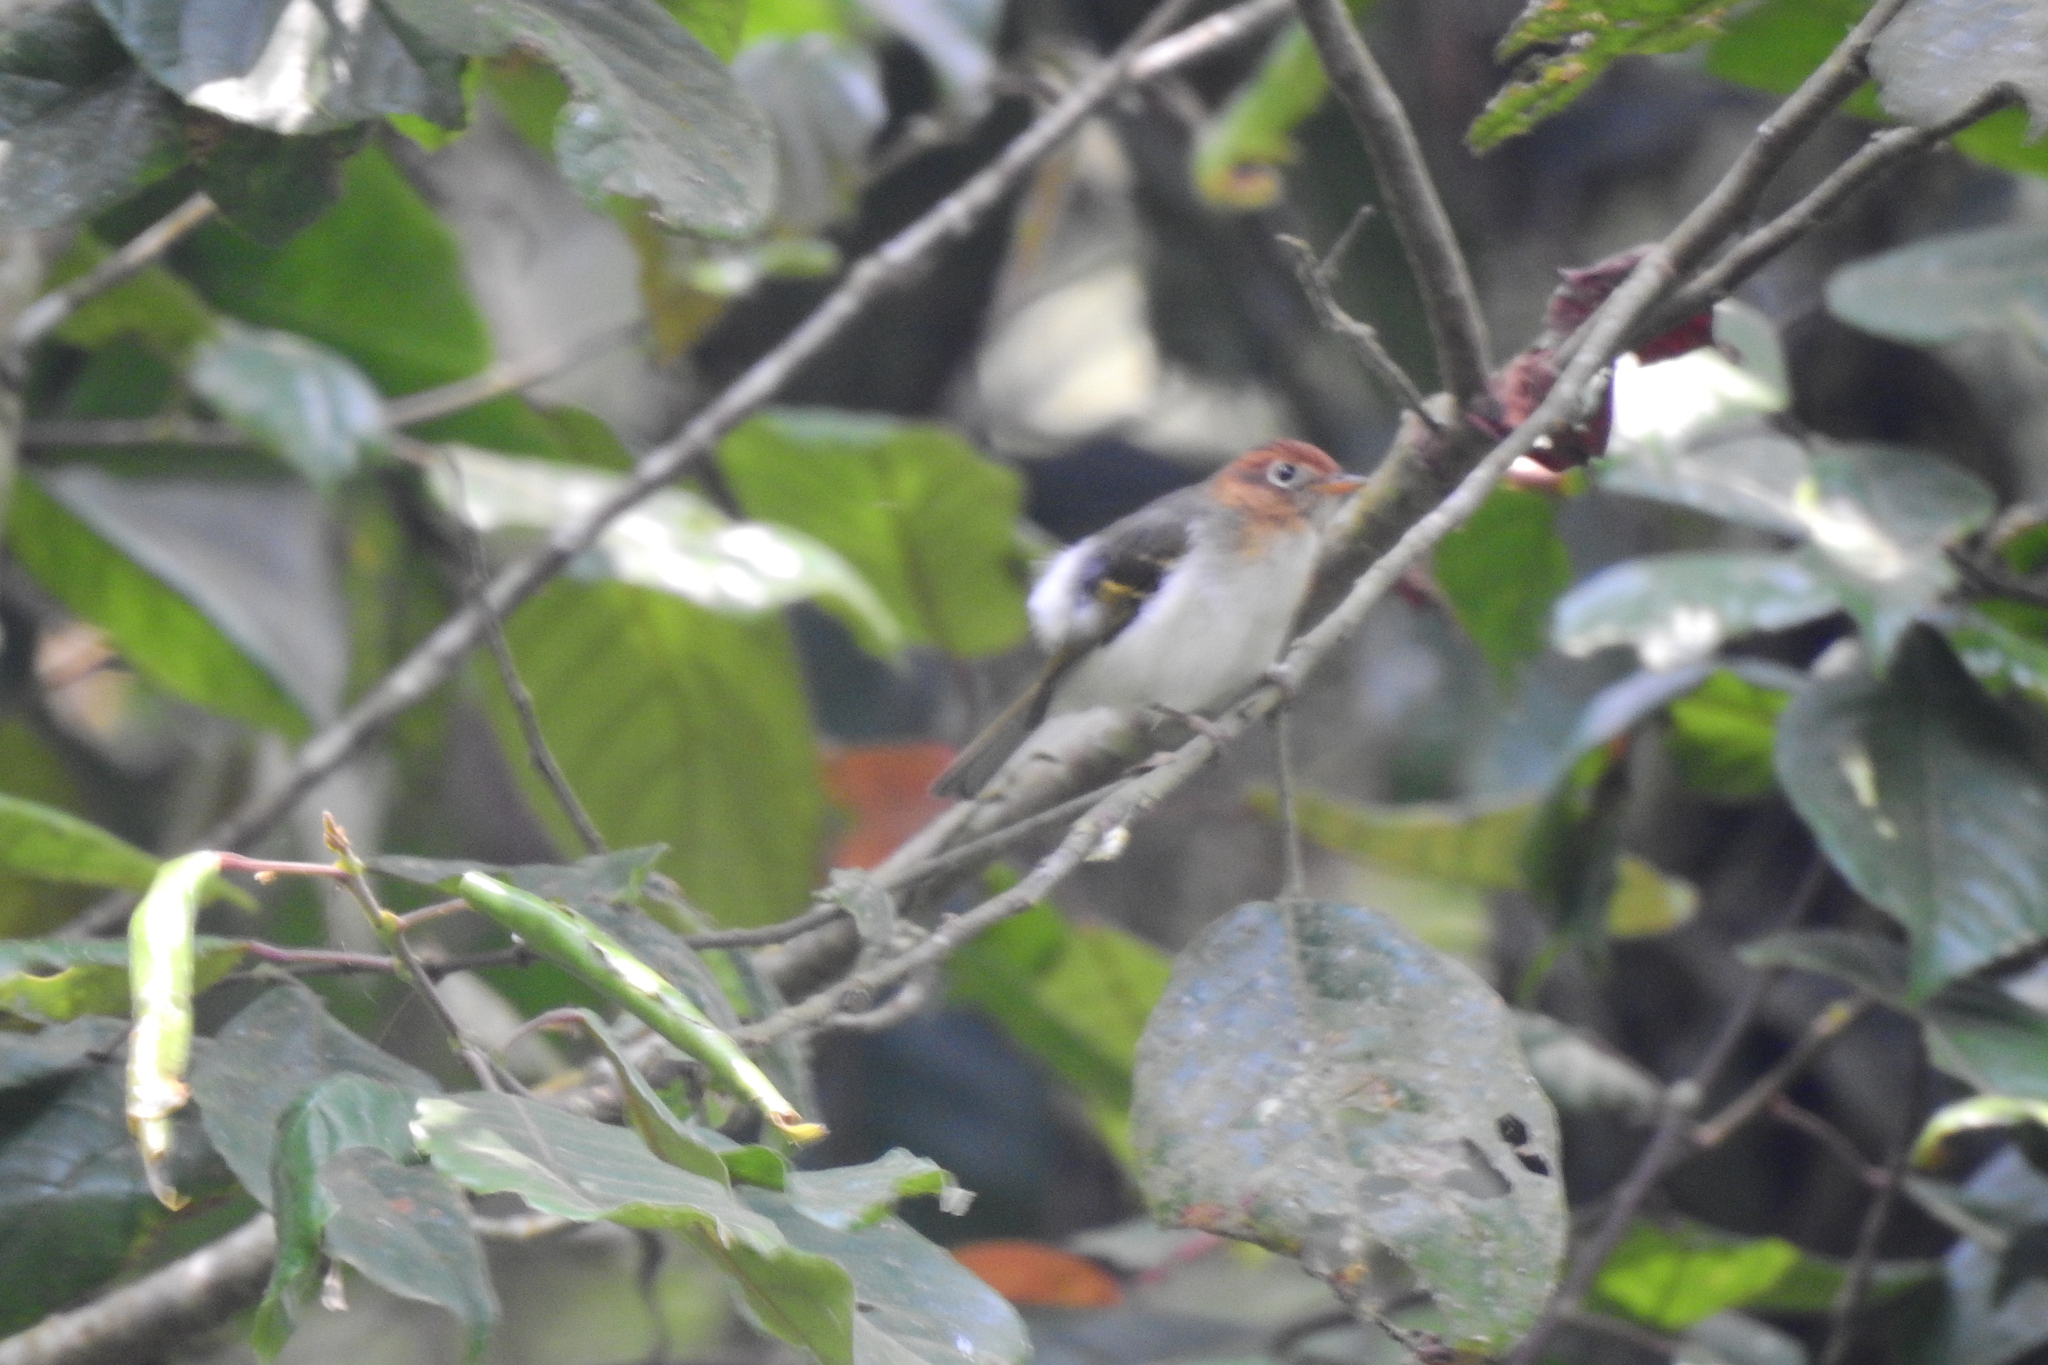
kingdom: Animalia
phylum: Chordata
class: Aves
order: Passeriformes
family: Phylloscopidae
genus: Seicercus
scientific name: Seicercus grammiceps
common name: Sunda warbler
